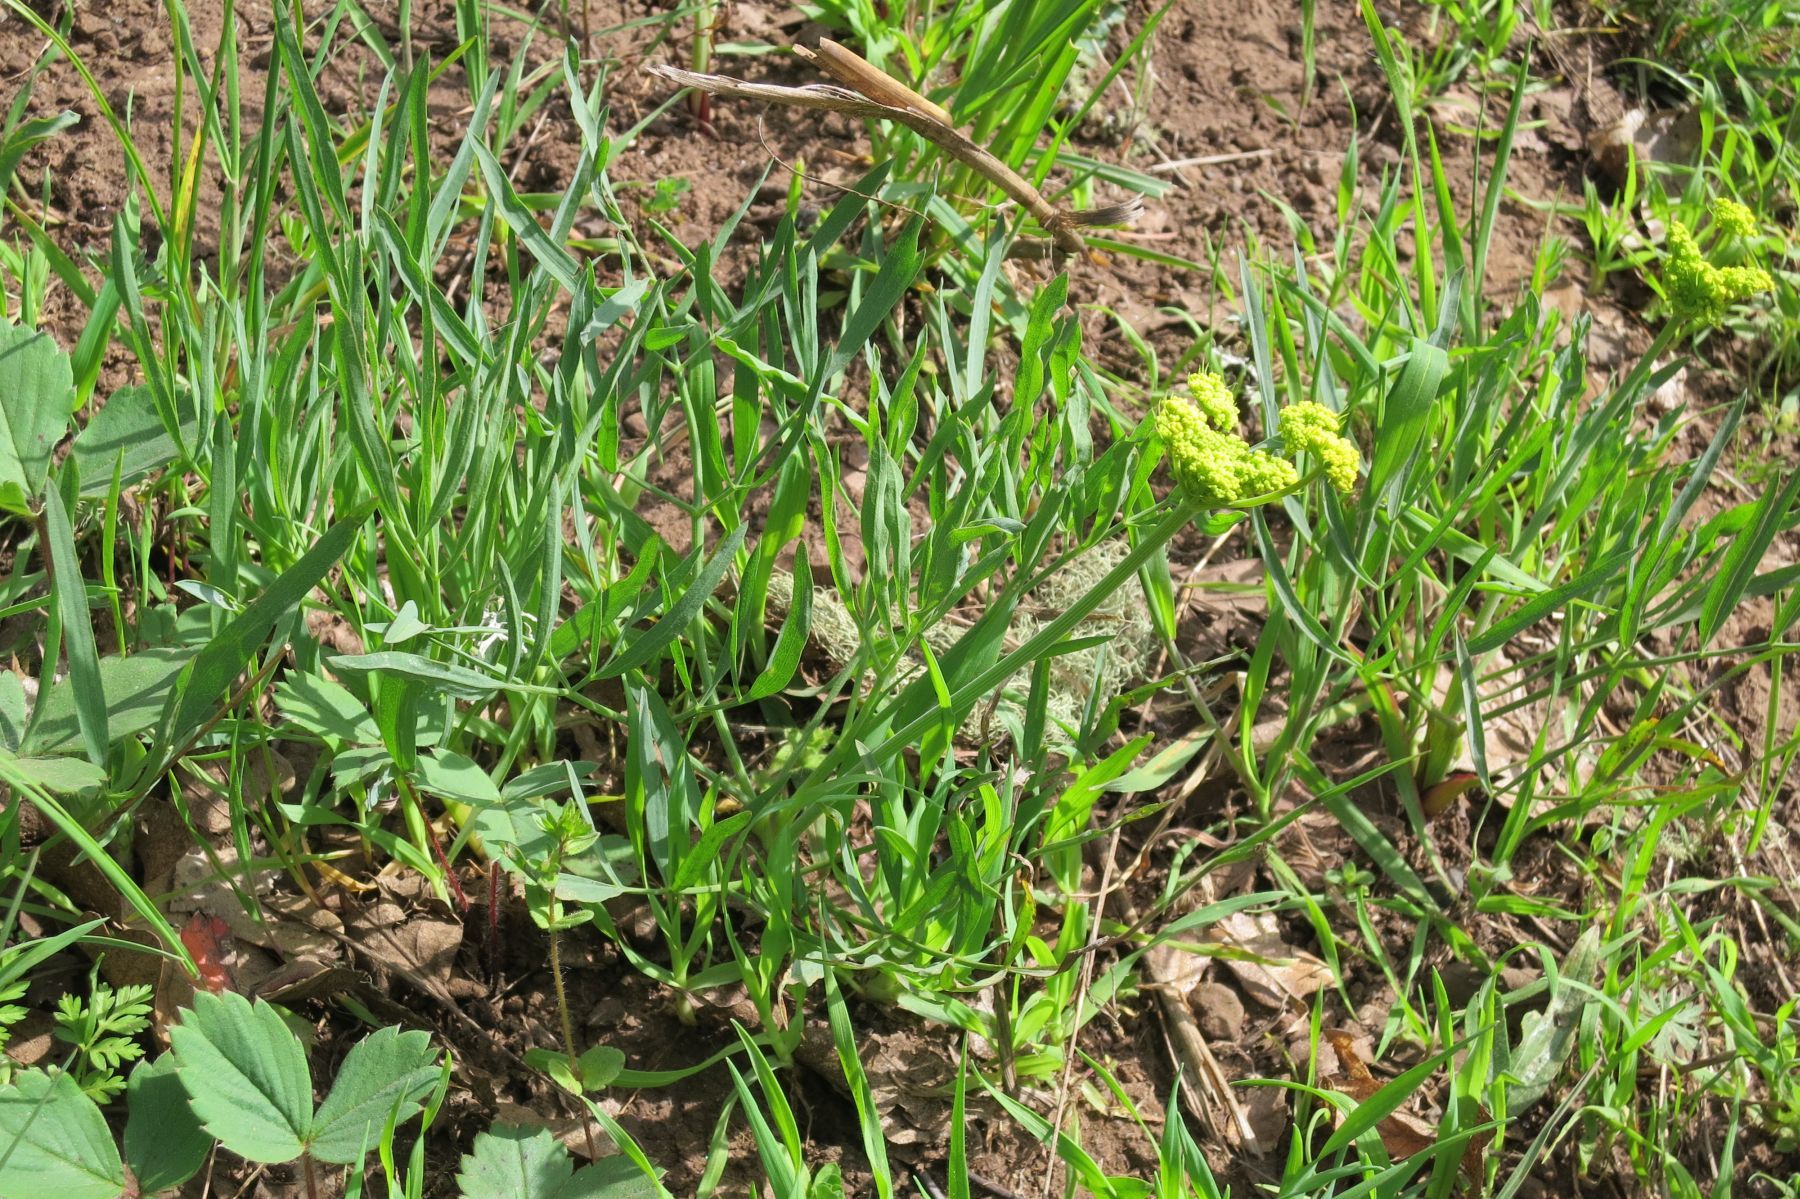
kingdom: Plantae
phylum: Tracheophyta
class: Magnoliopsida
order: Apiales
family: Apiaceae
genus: Lomatium
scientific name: Lomatium triternatum
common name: Ternate lomatium
